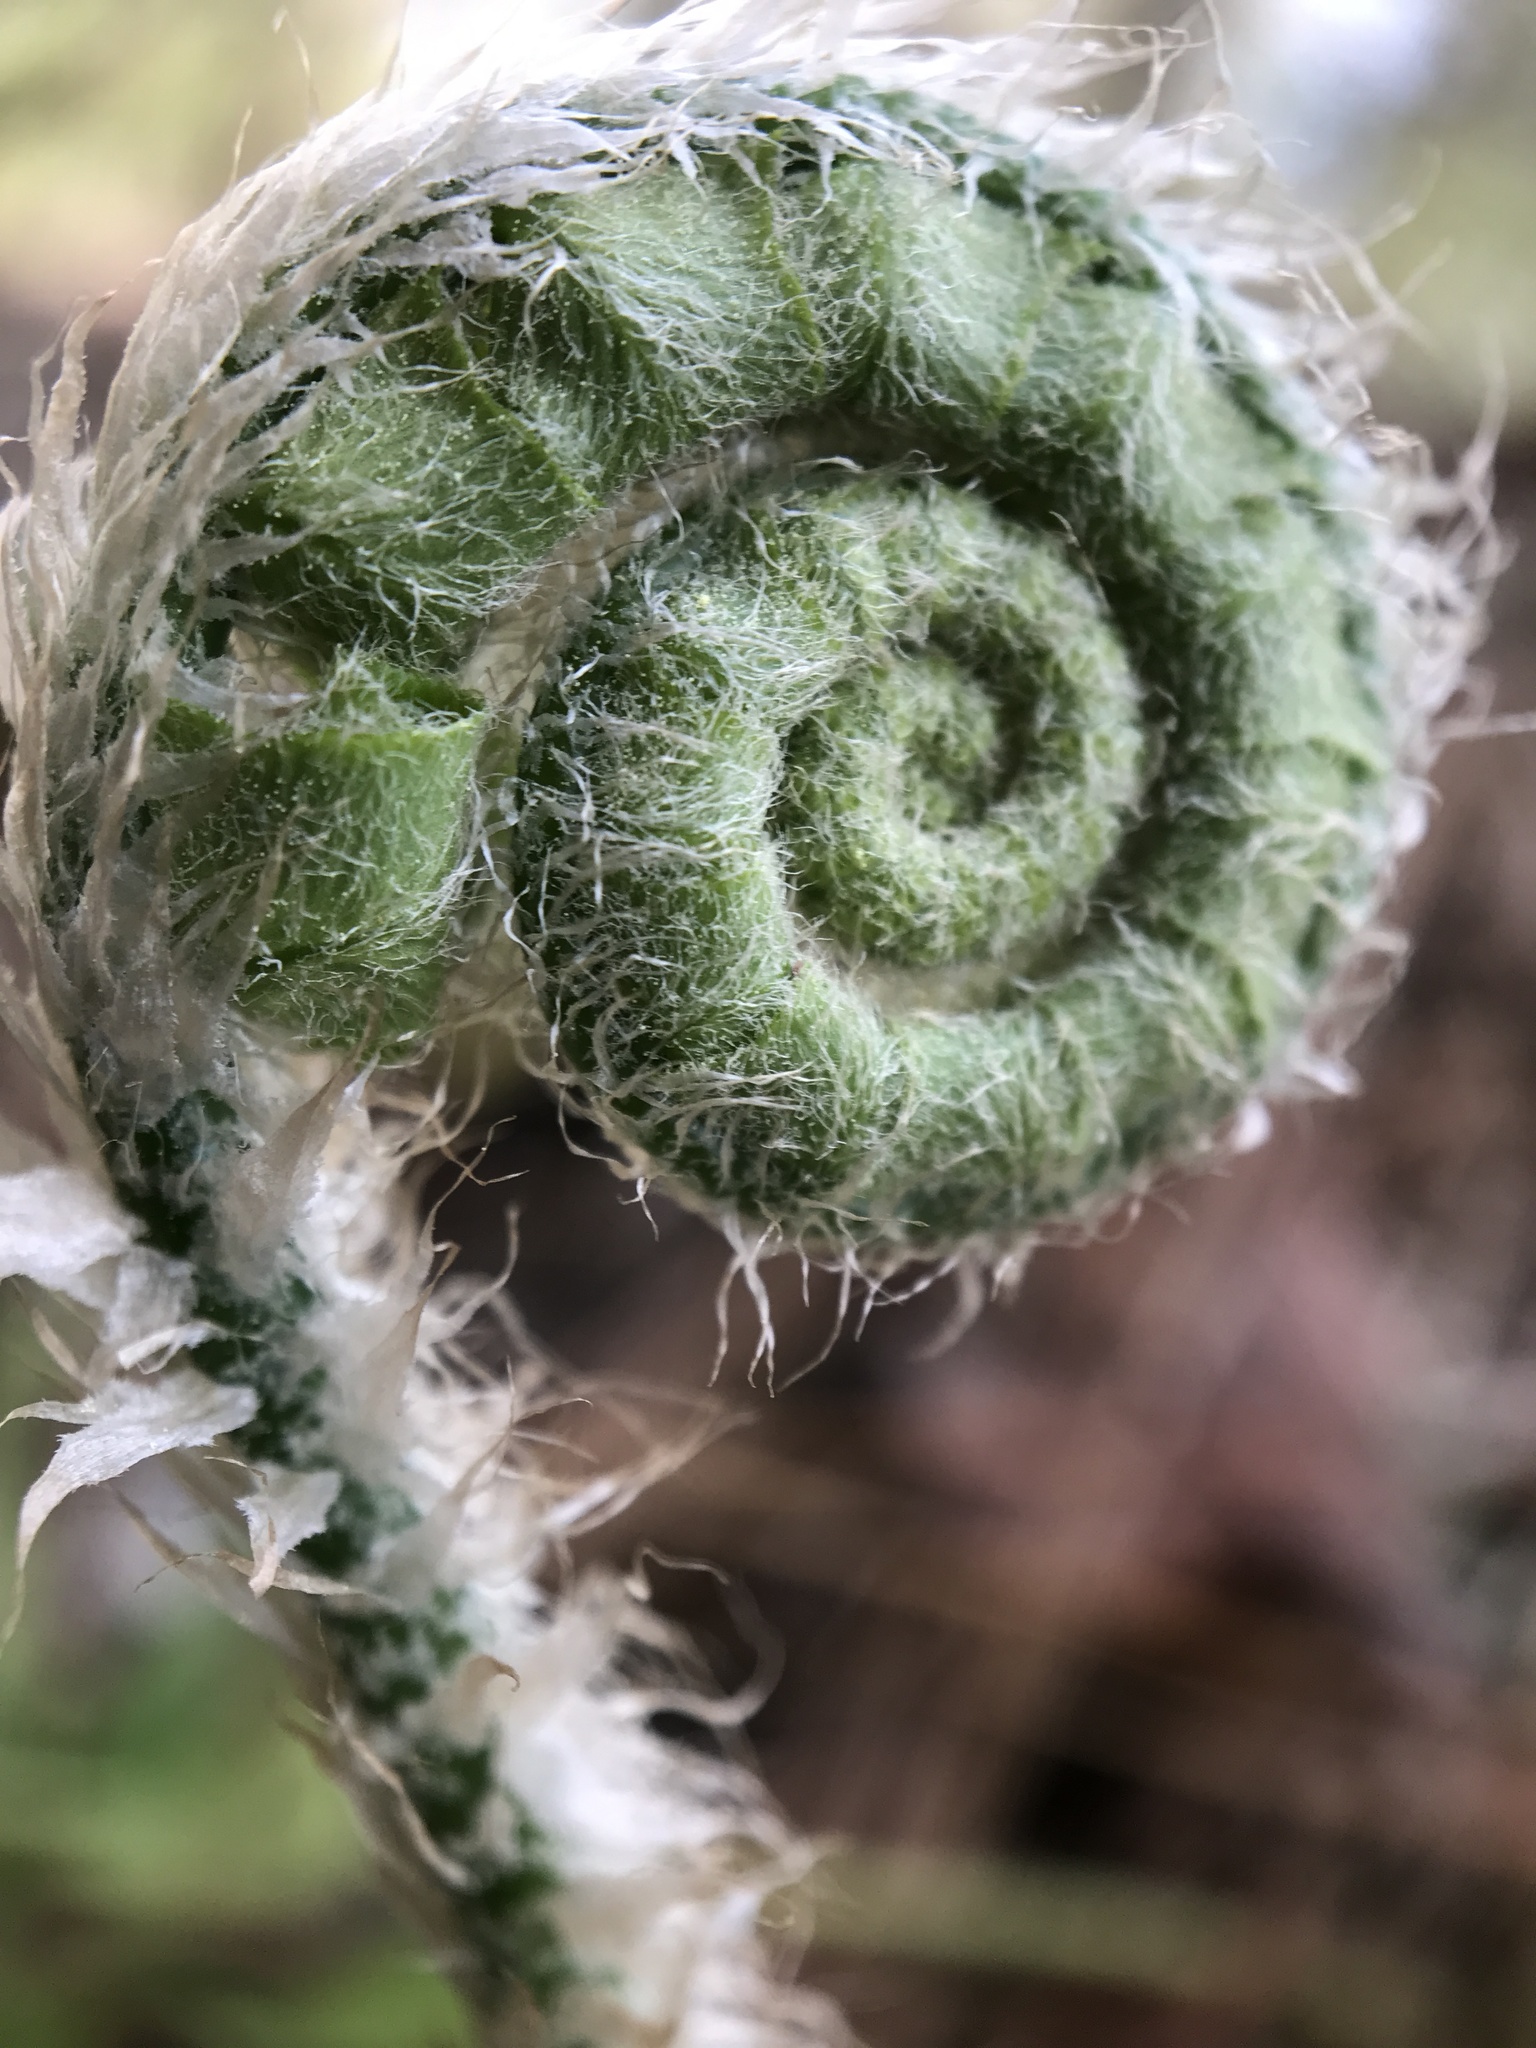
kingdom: Plantae
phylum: Tracheophyta
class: Polypodiopsida
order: Polypodiales
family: Dryopteridaceae
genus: Polystichum
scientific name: Polystichum acrostichoides
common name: Christmas fern
